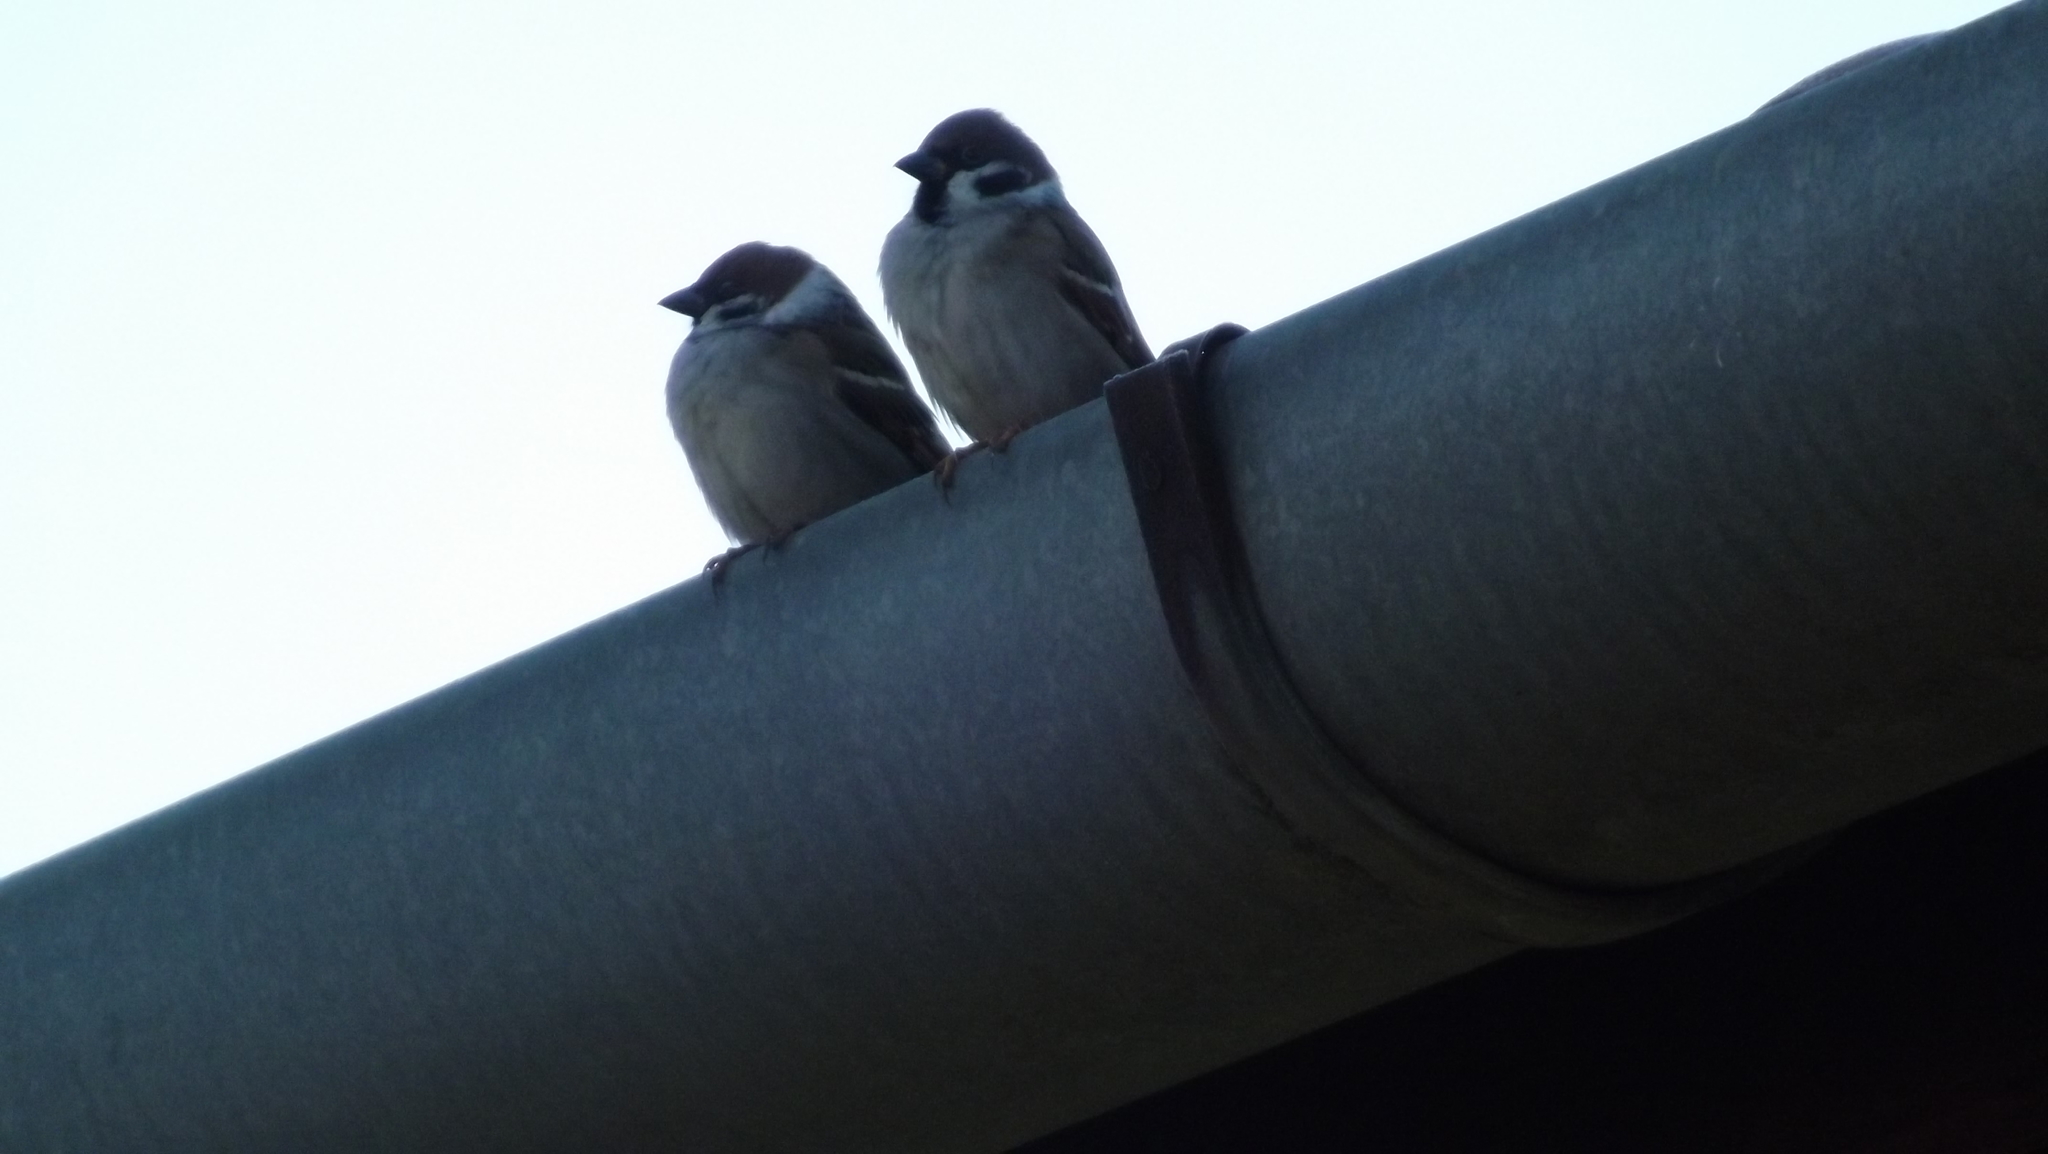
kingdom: Animalia
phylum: Chordata
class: Aves
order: Passeriformes
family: Passeridae
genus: Passer
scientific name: Passer montanus
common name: Eurasian tree sparrow
